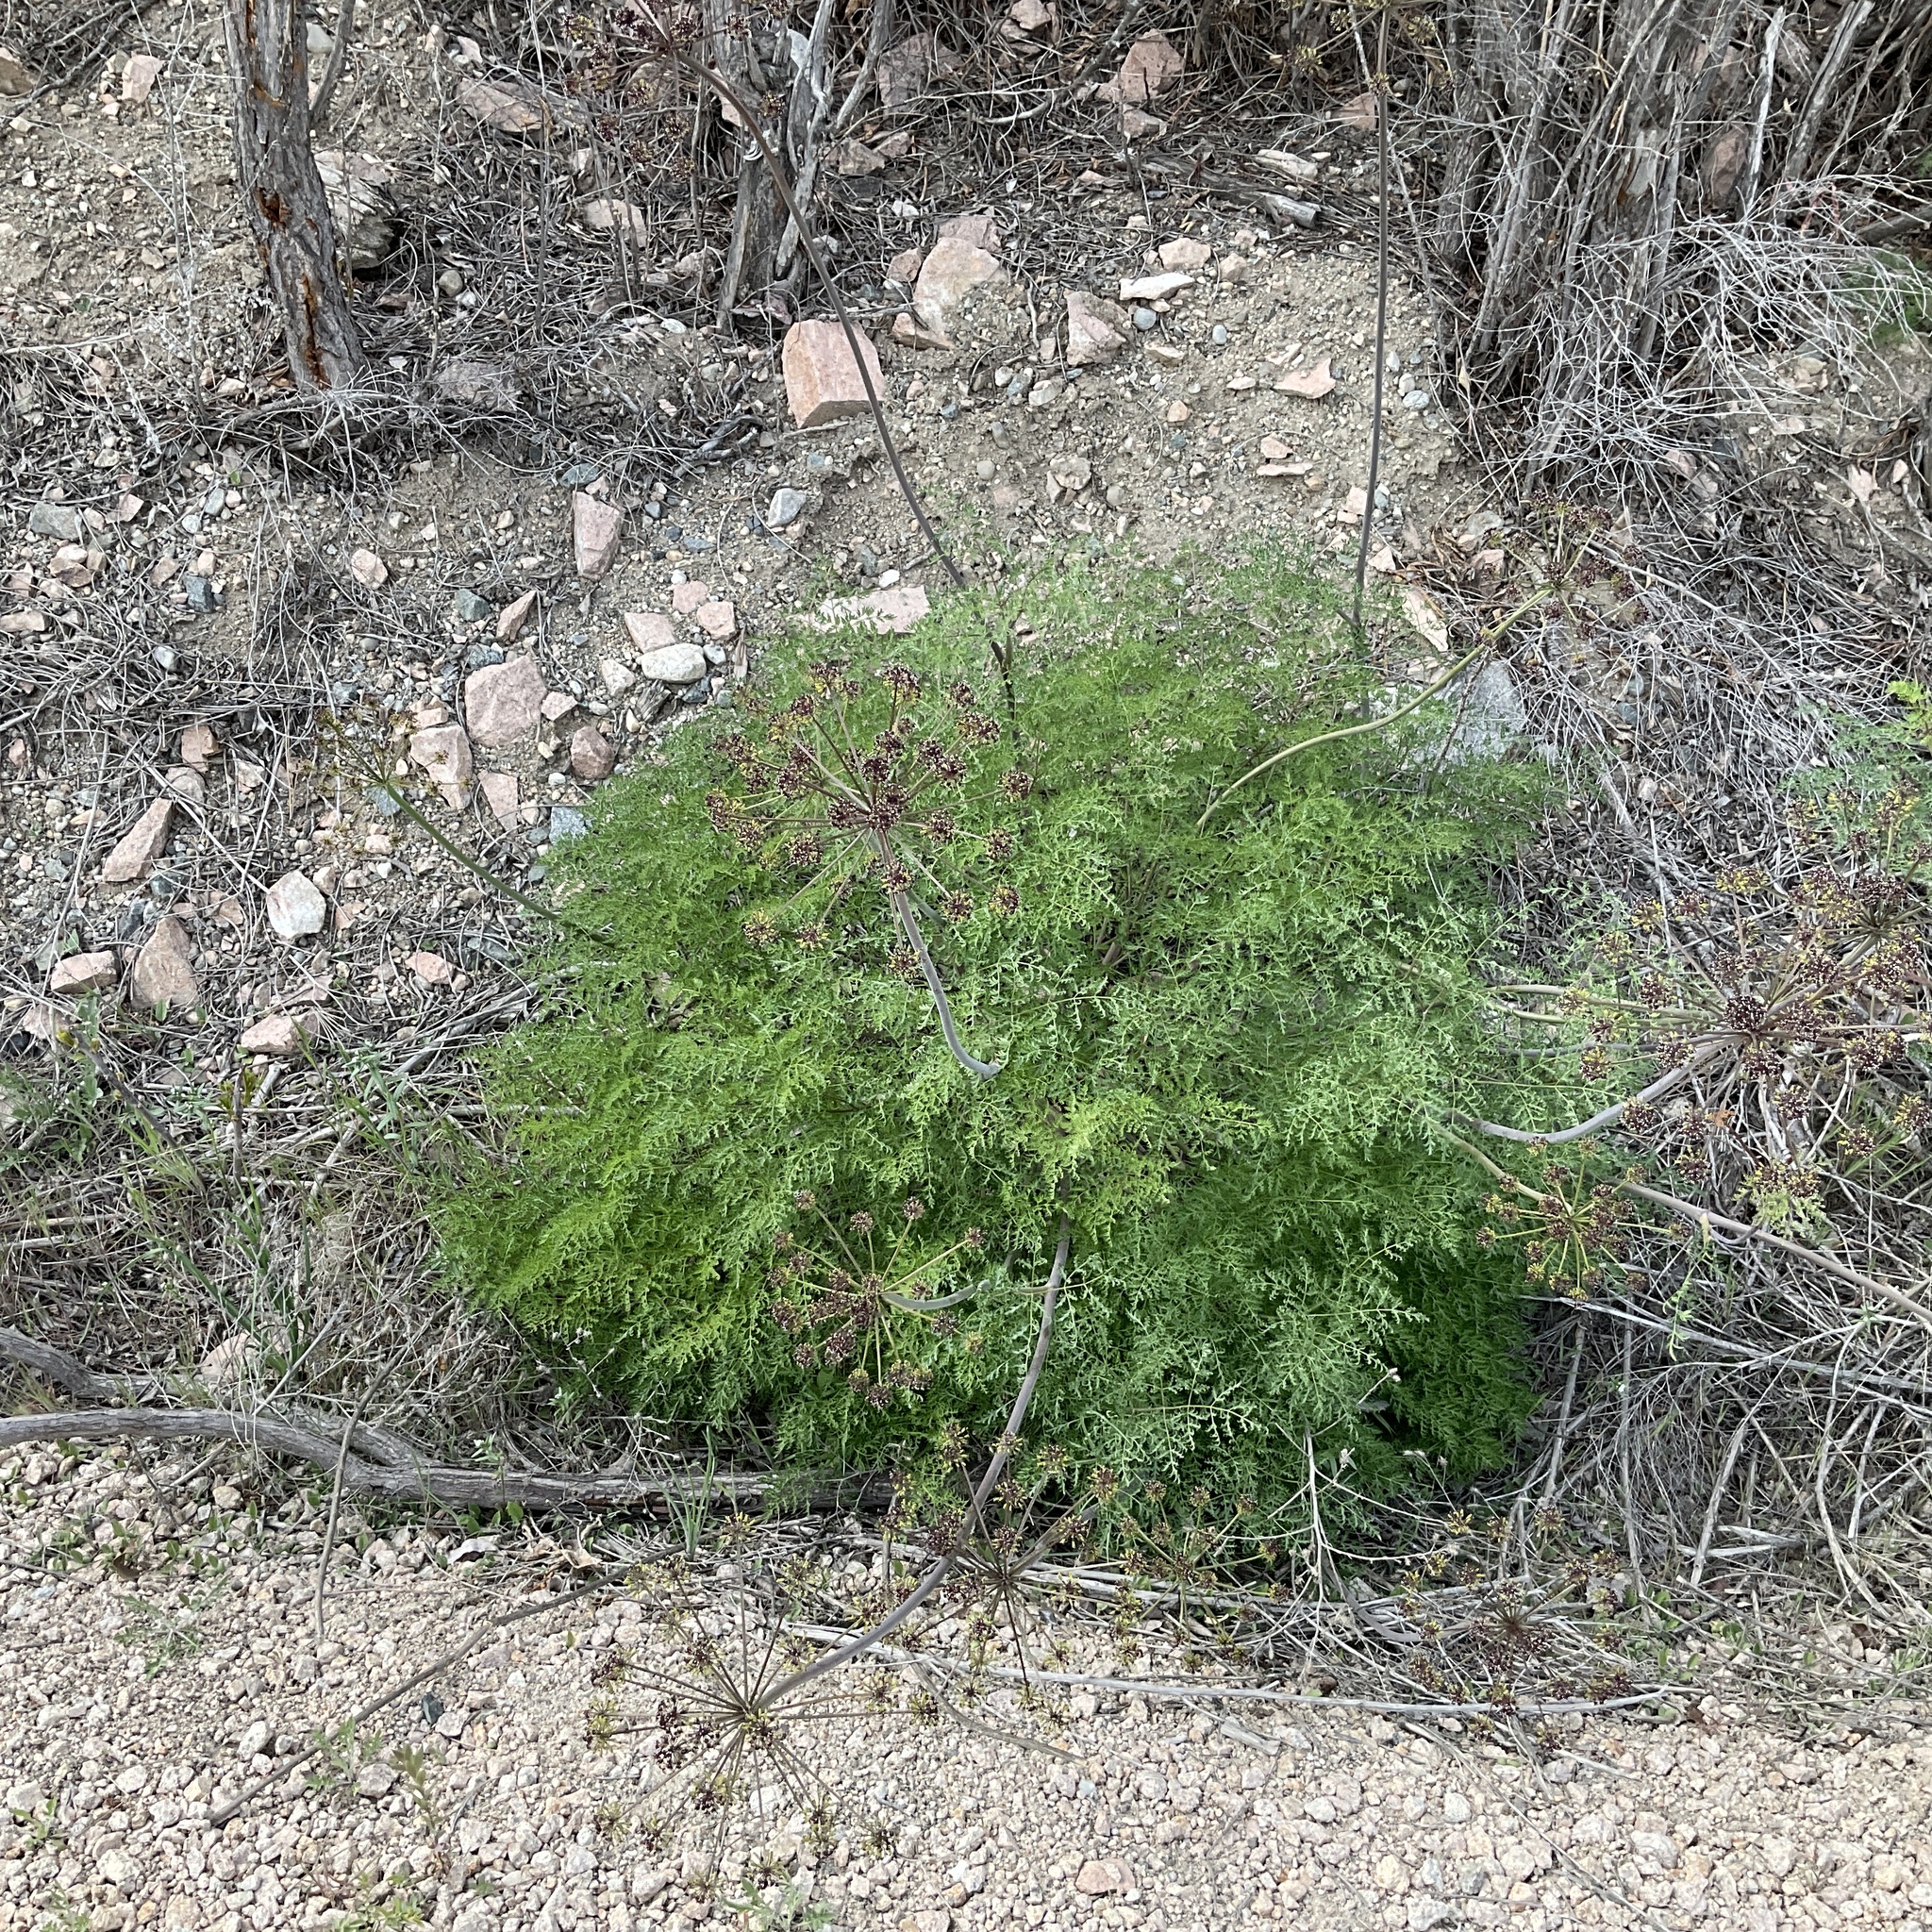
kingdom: Plantae
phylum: Tracheophyta
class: Magnoliopsida
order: Apiales
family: Apiaceae
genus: Lomatium
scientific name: Lomatium multifidum
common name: Carrot-leaved biscuitroot
